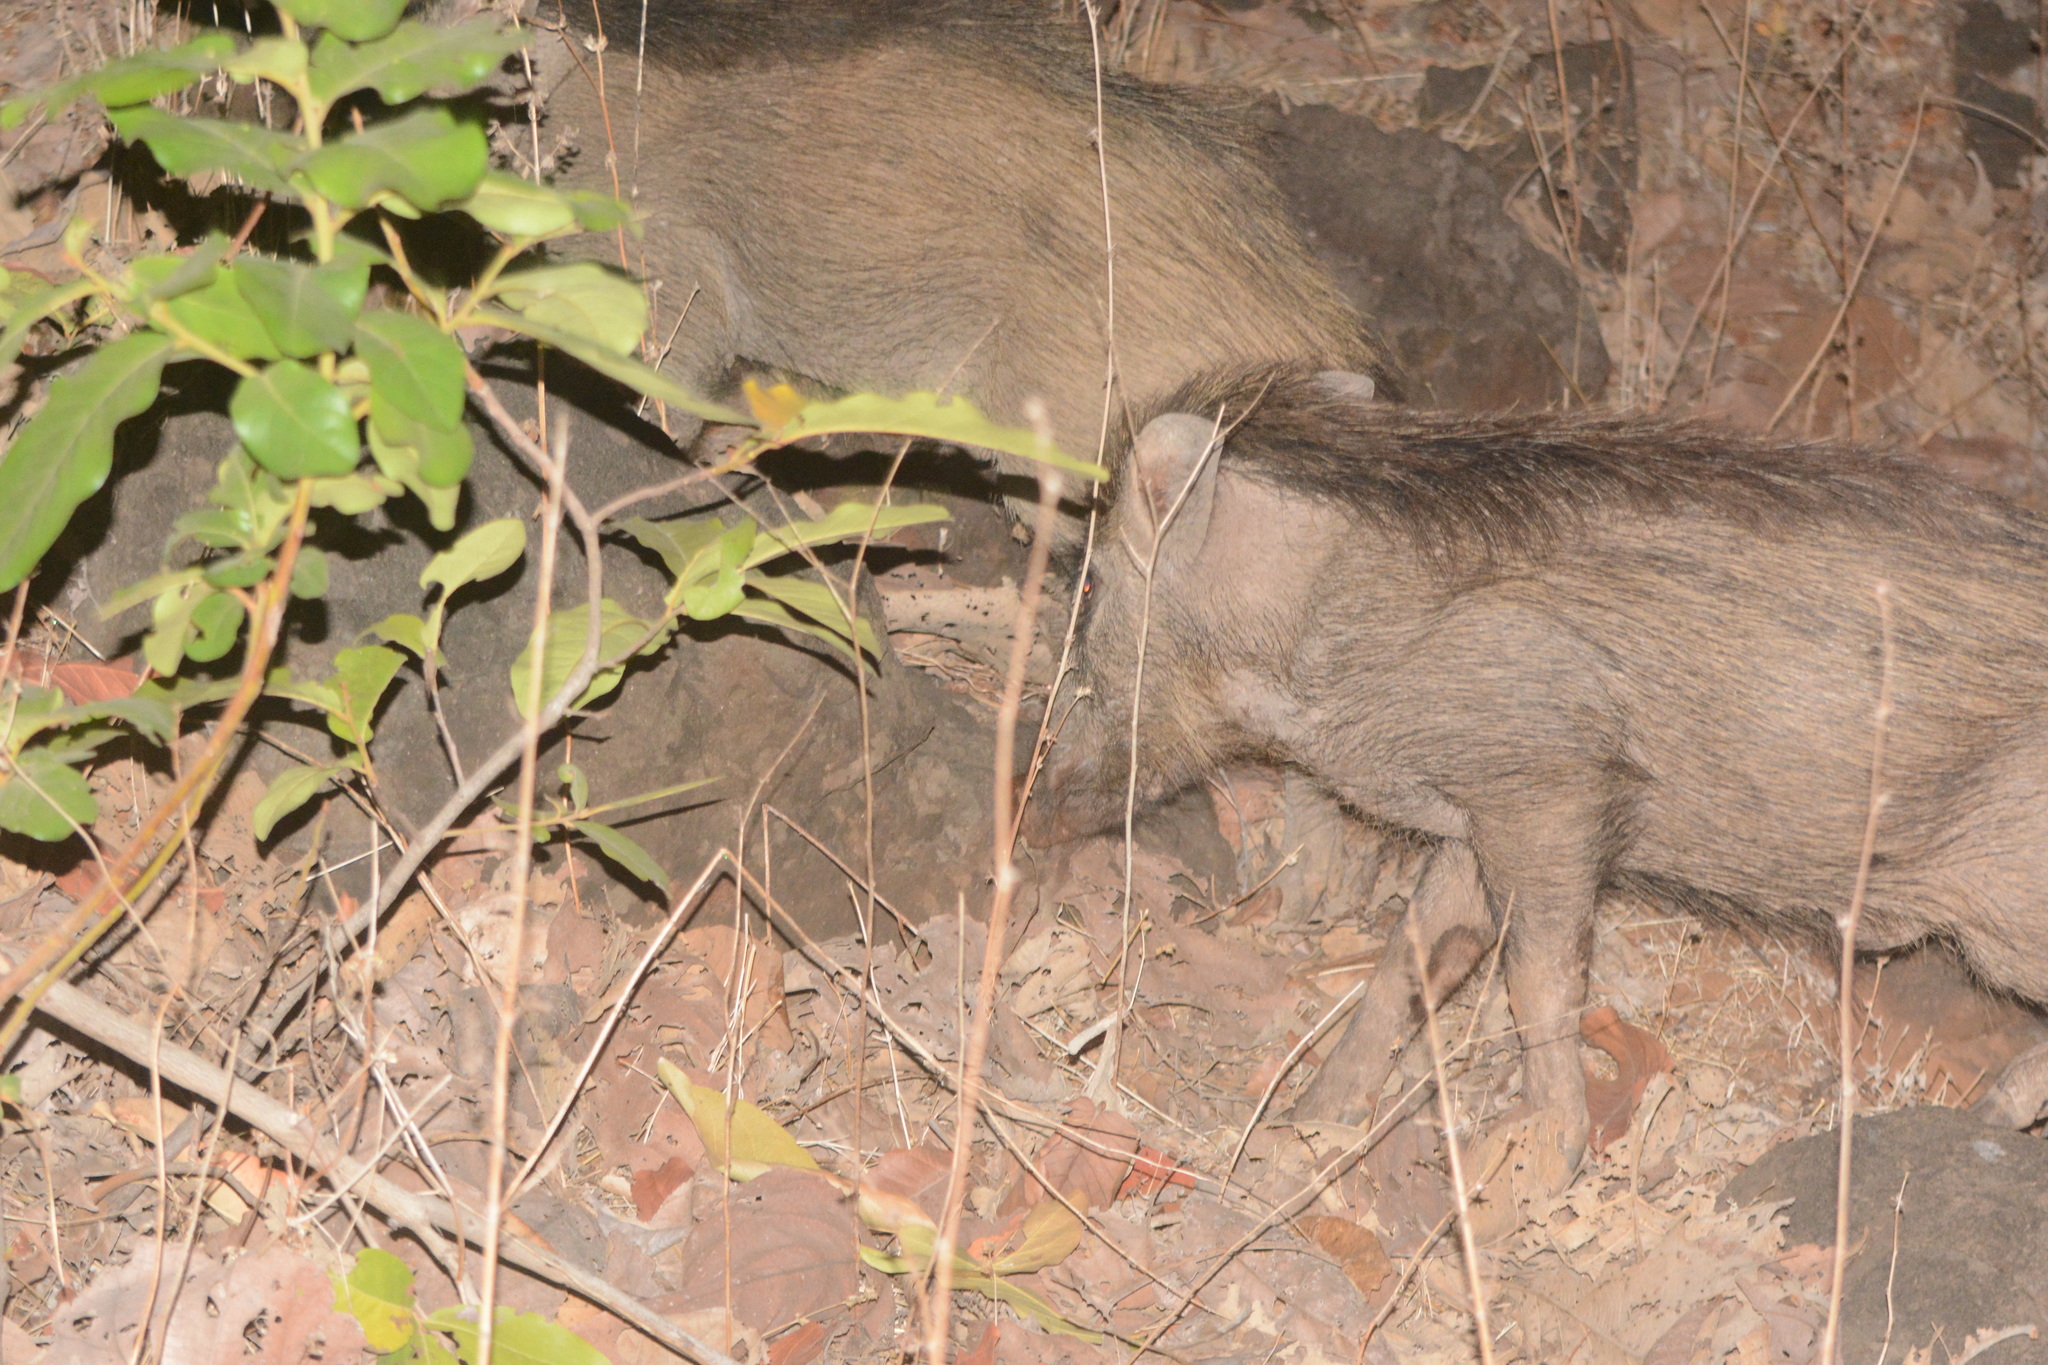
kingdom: Animalia
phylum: Chordata
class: Mammalia
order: Artiodactyla
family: Suidae
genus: Sus
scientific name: Sus scrofa
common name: Wild boar
